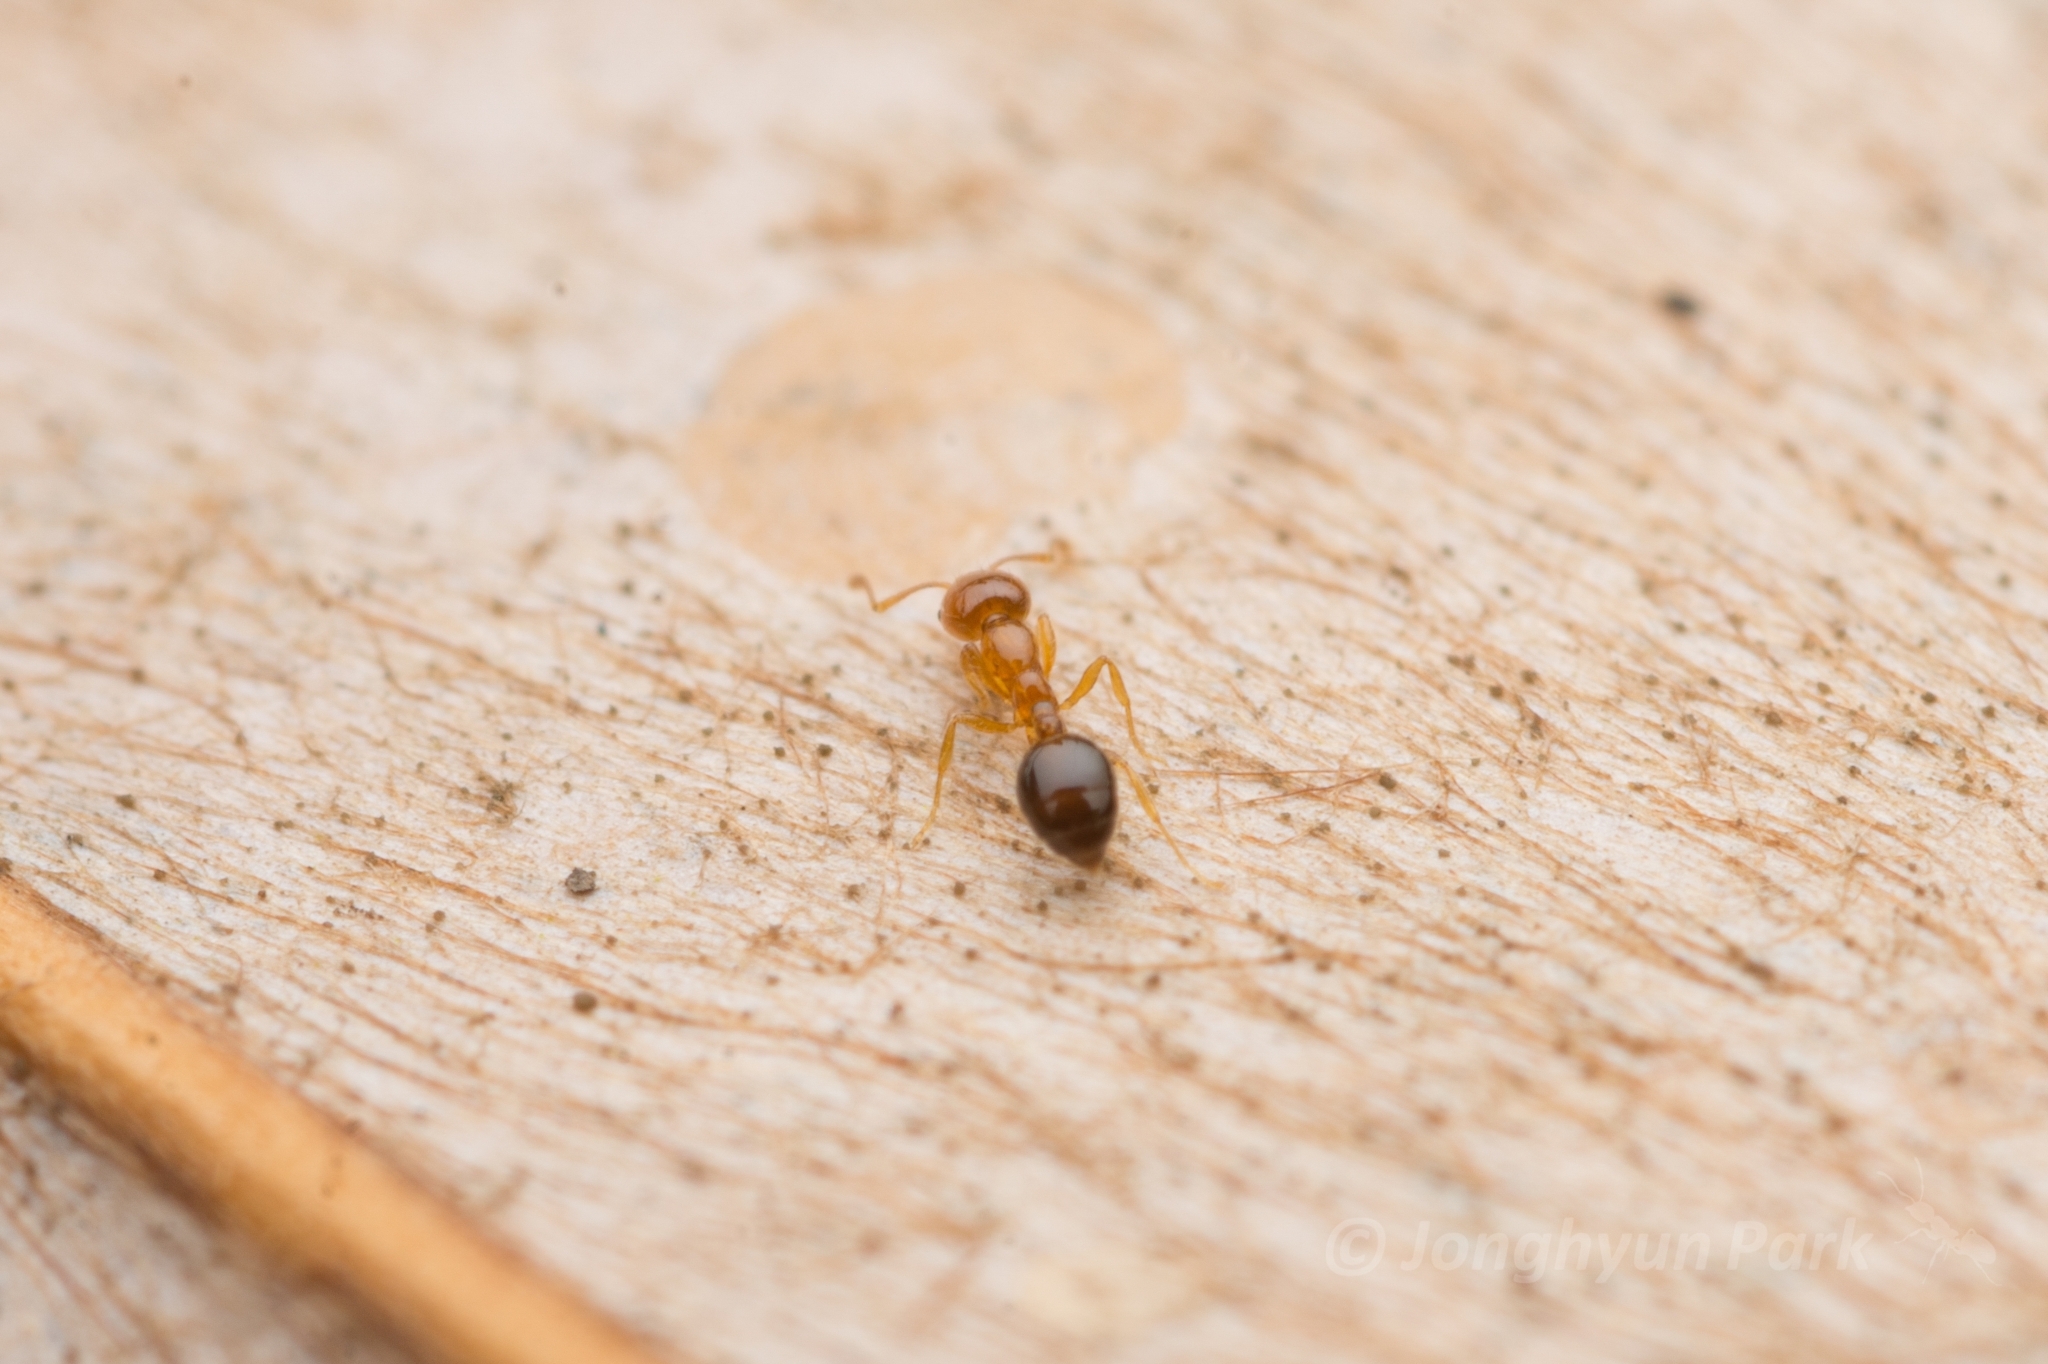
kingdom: Animalia
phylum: Arthropoda
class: Insecta
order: Hymenoptera
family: Formicidae
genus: Monomorium
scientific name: Monomorium intrudens
